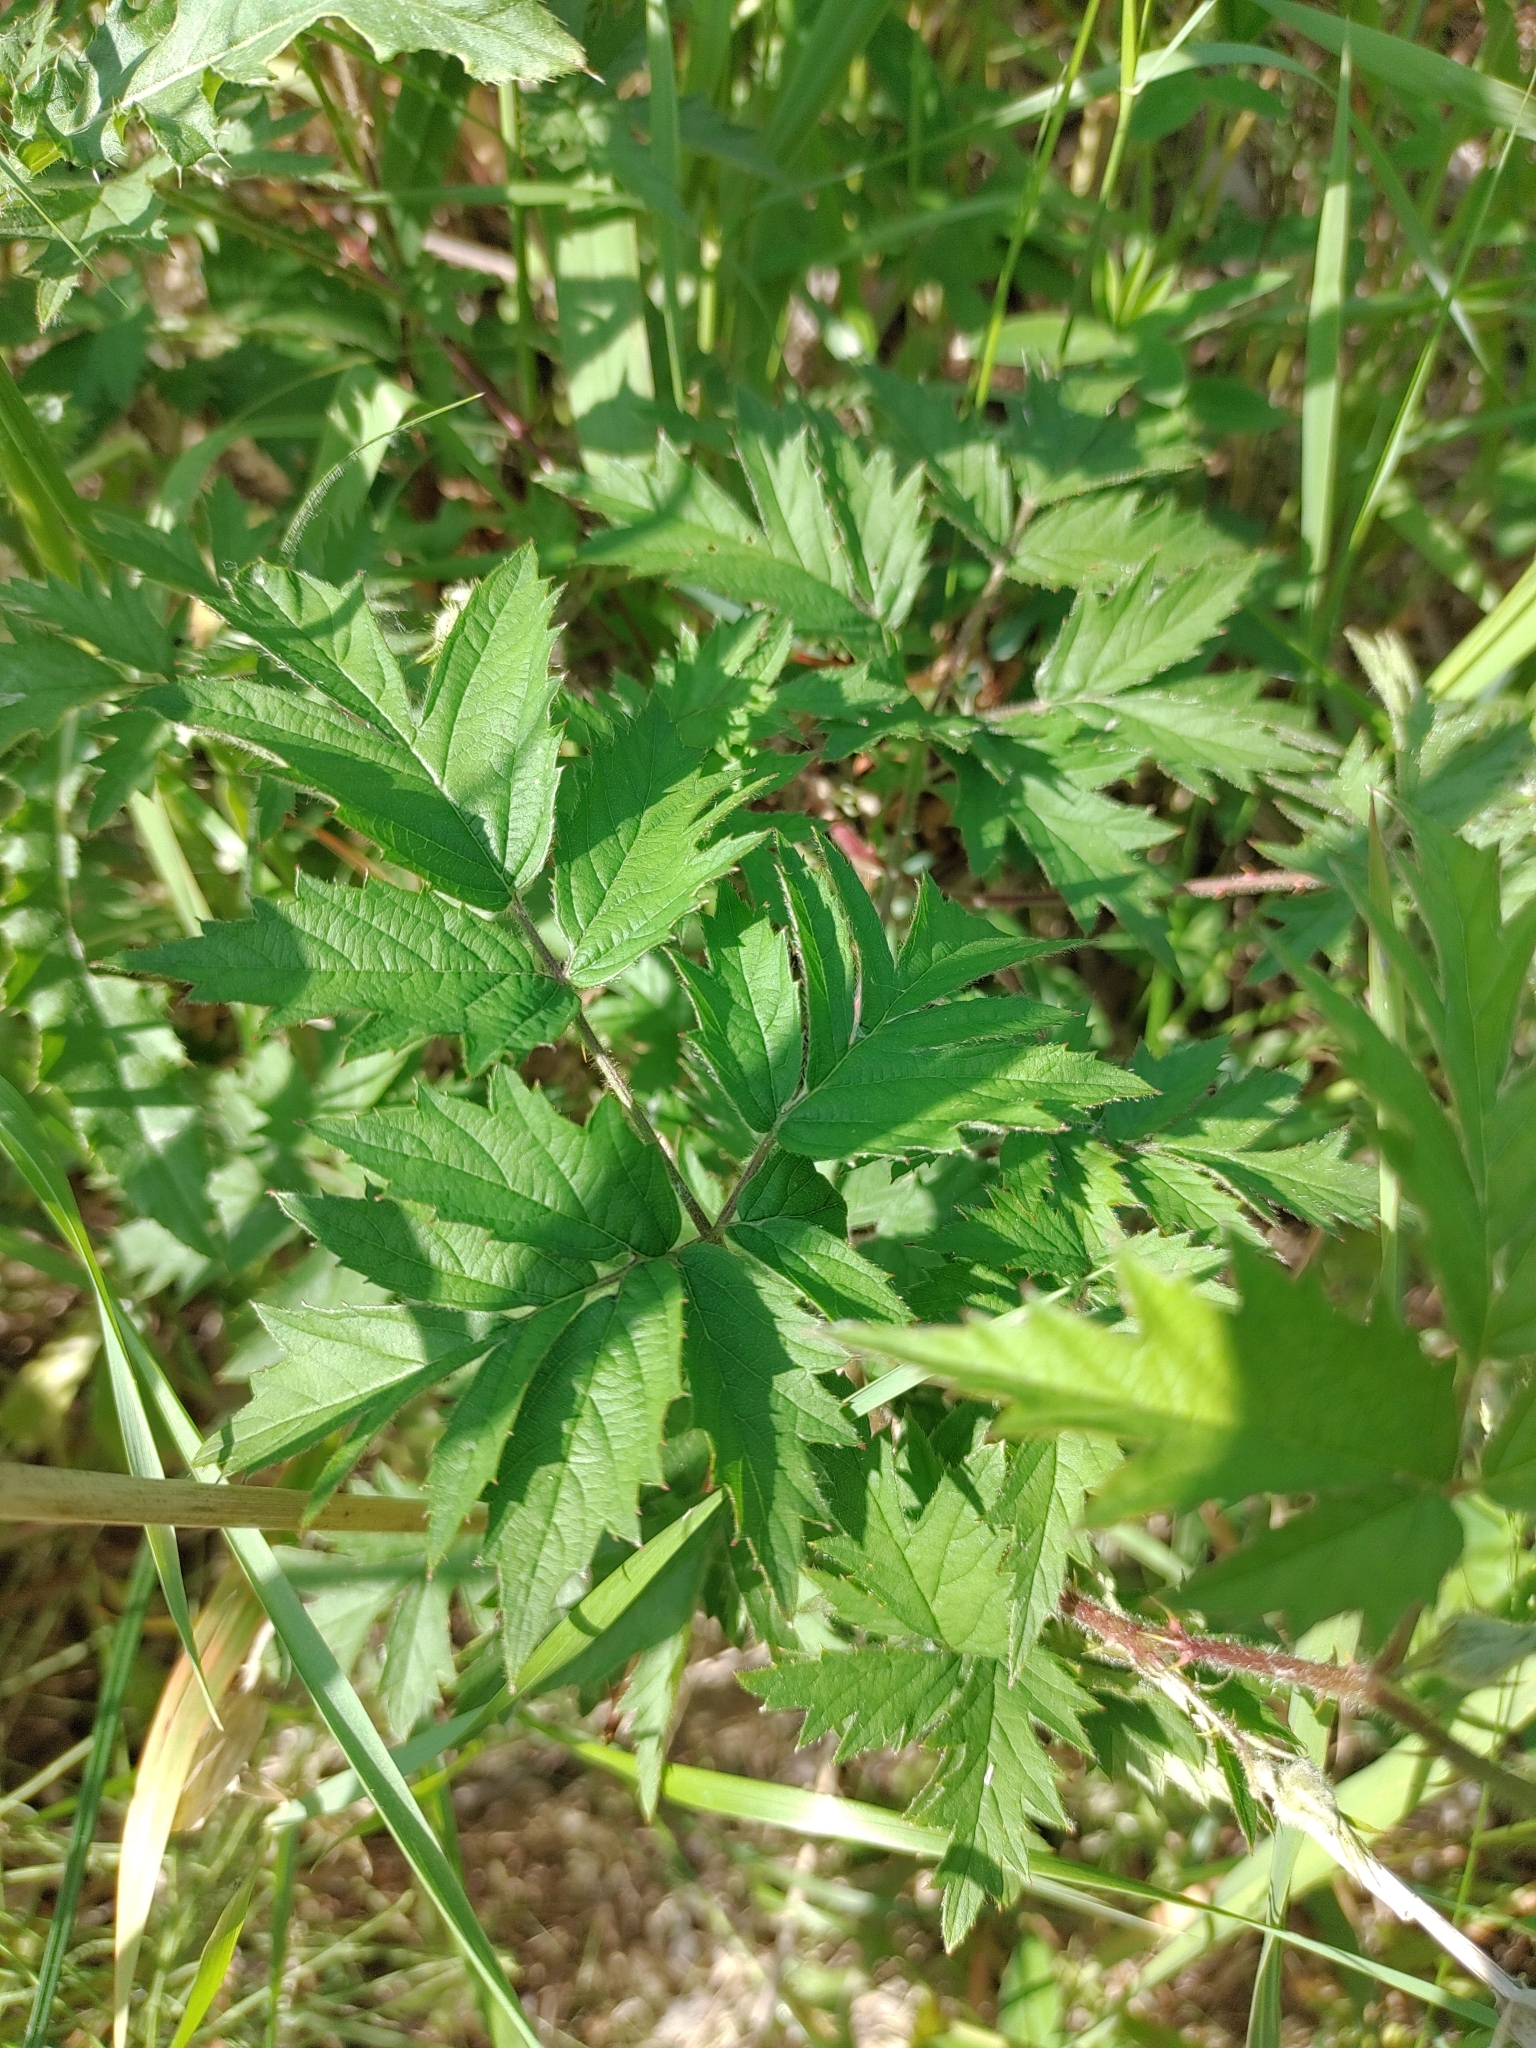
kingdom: Plantae
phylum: Tracheophyta
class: Magnoliopsida
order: Rosales
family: Rosaceae
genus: Rubus
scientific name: Rubus laciniatus
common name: Evergreen blackberry
